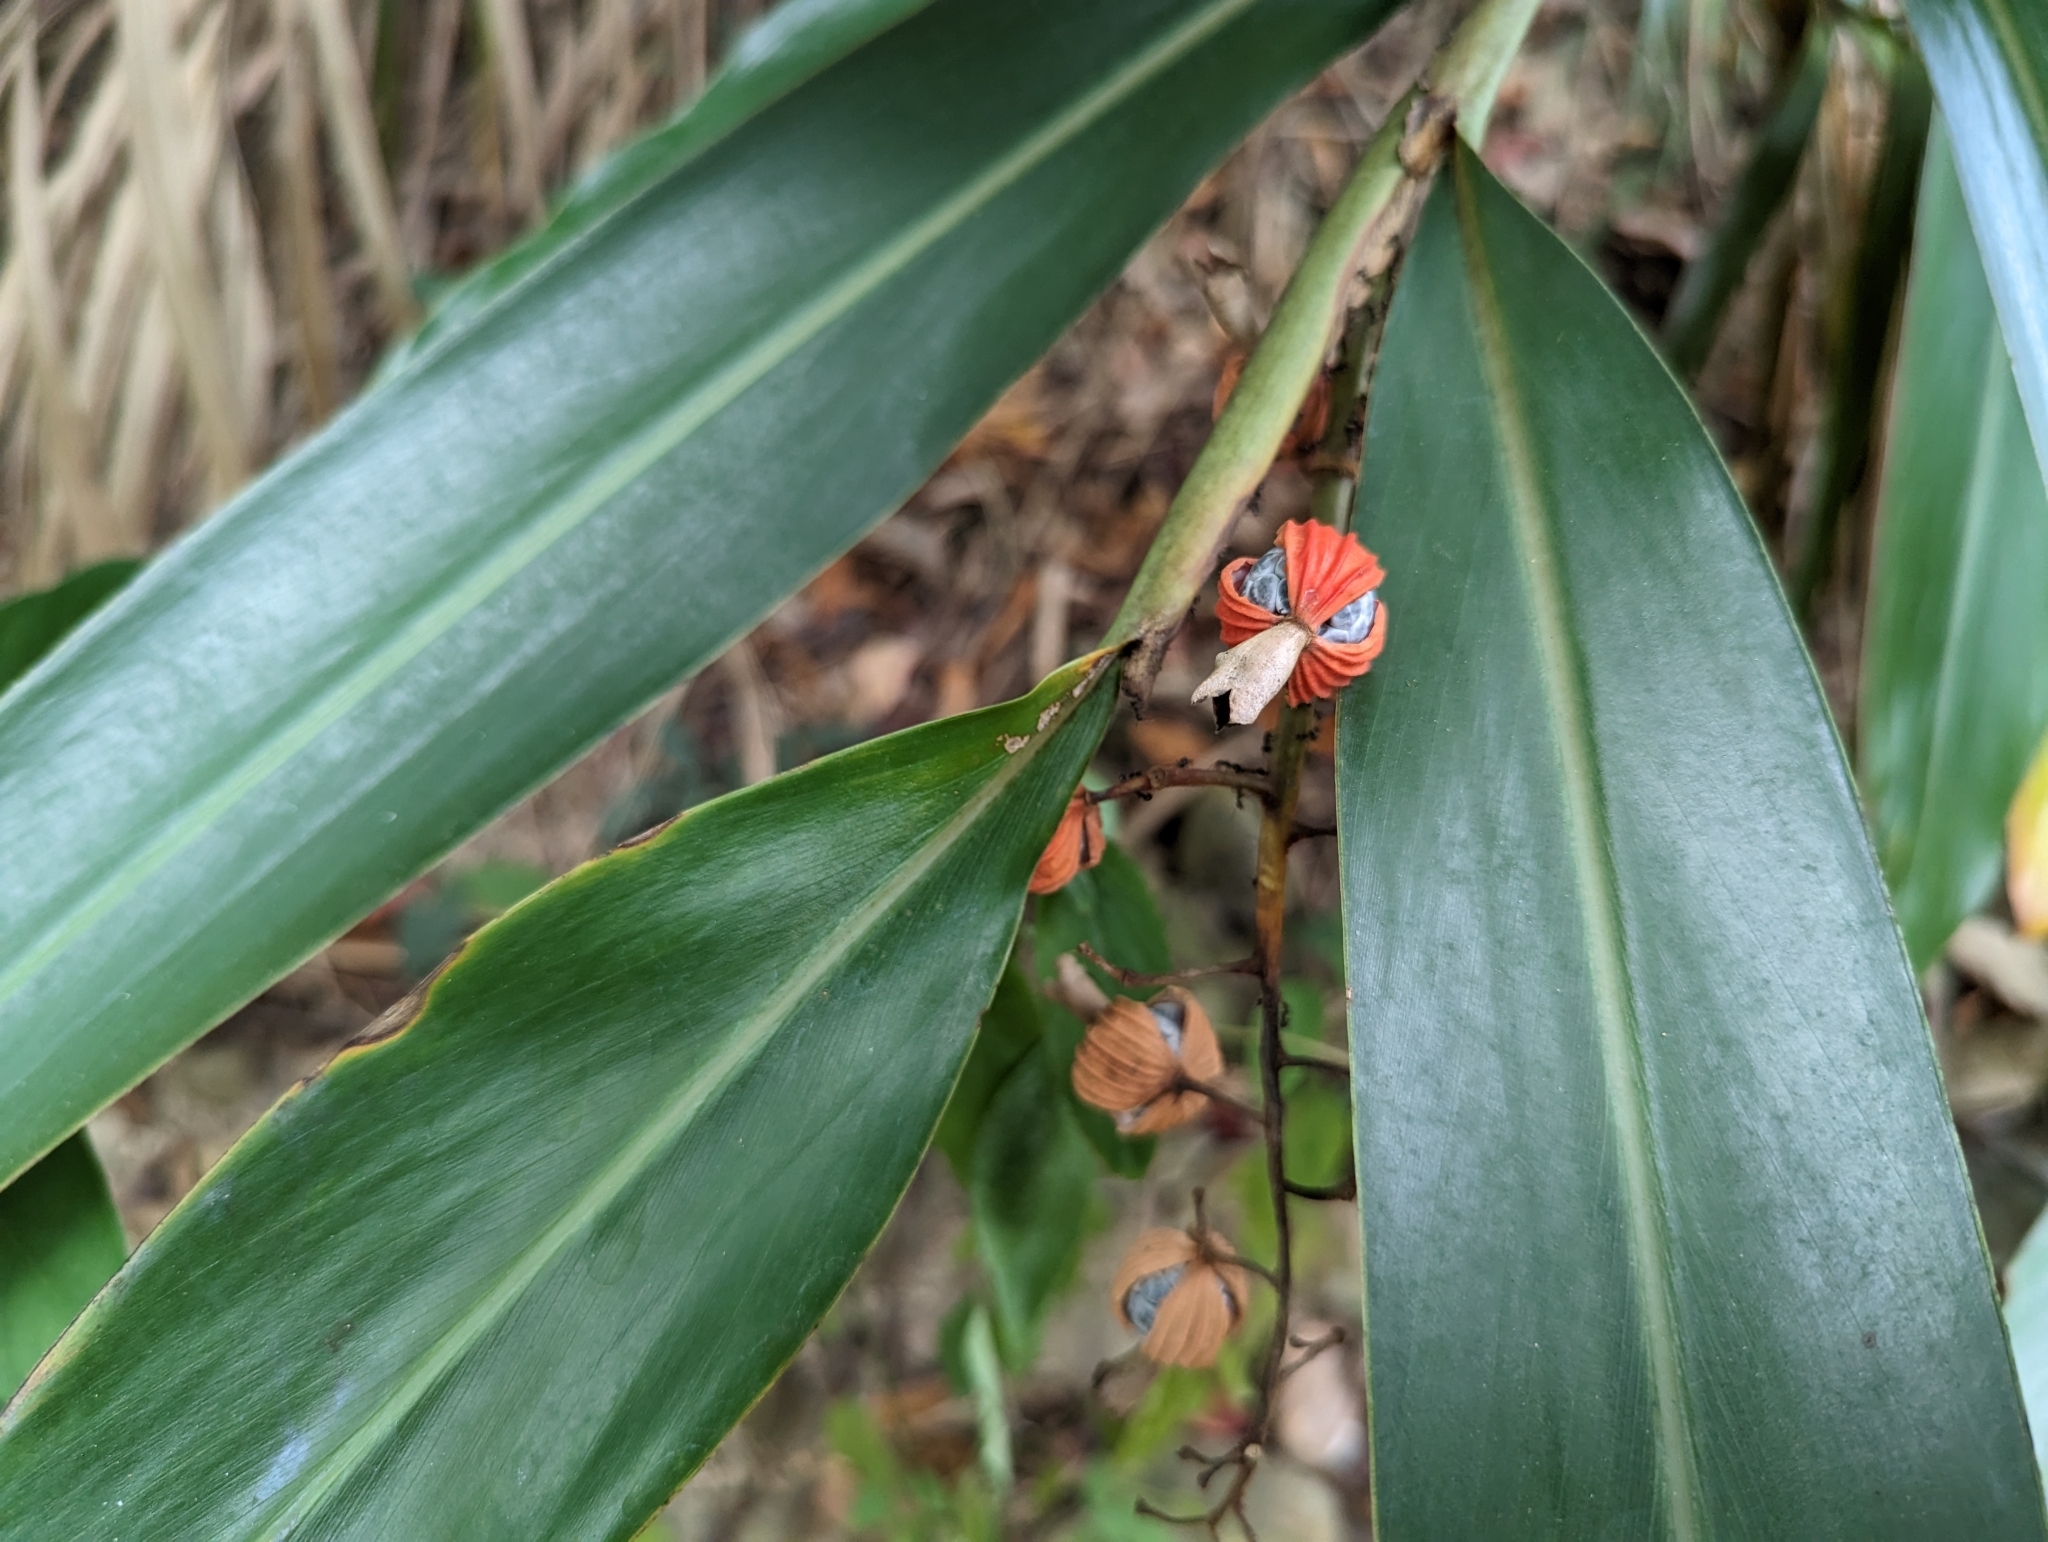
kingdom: Plantae
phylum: Tracheophyta
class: Liliopsida
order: Zingiberales
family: Zingiberaceae
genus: Alpinia
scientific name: Alpinia zerumbet
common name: Shellplant
